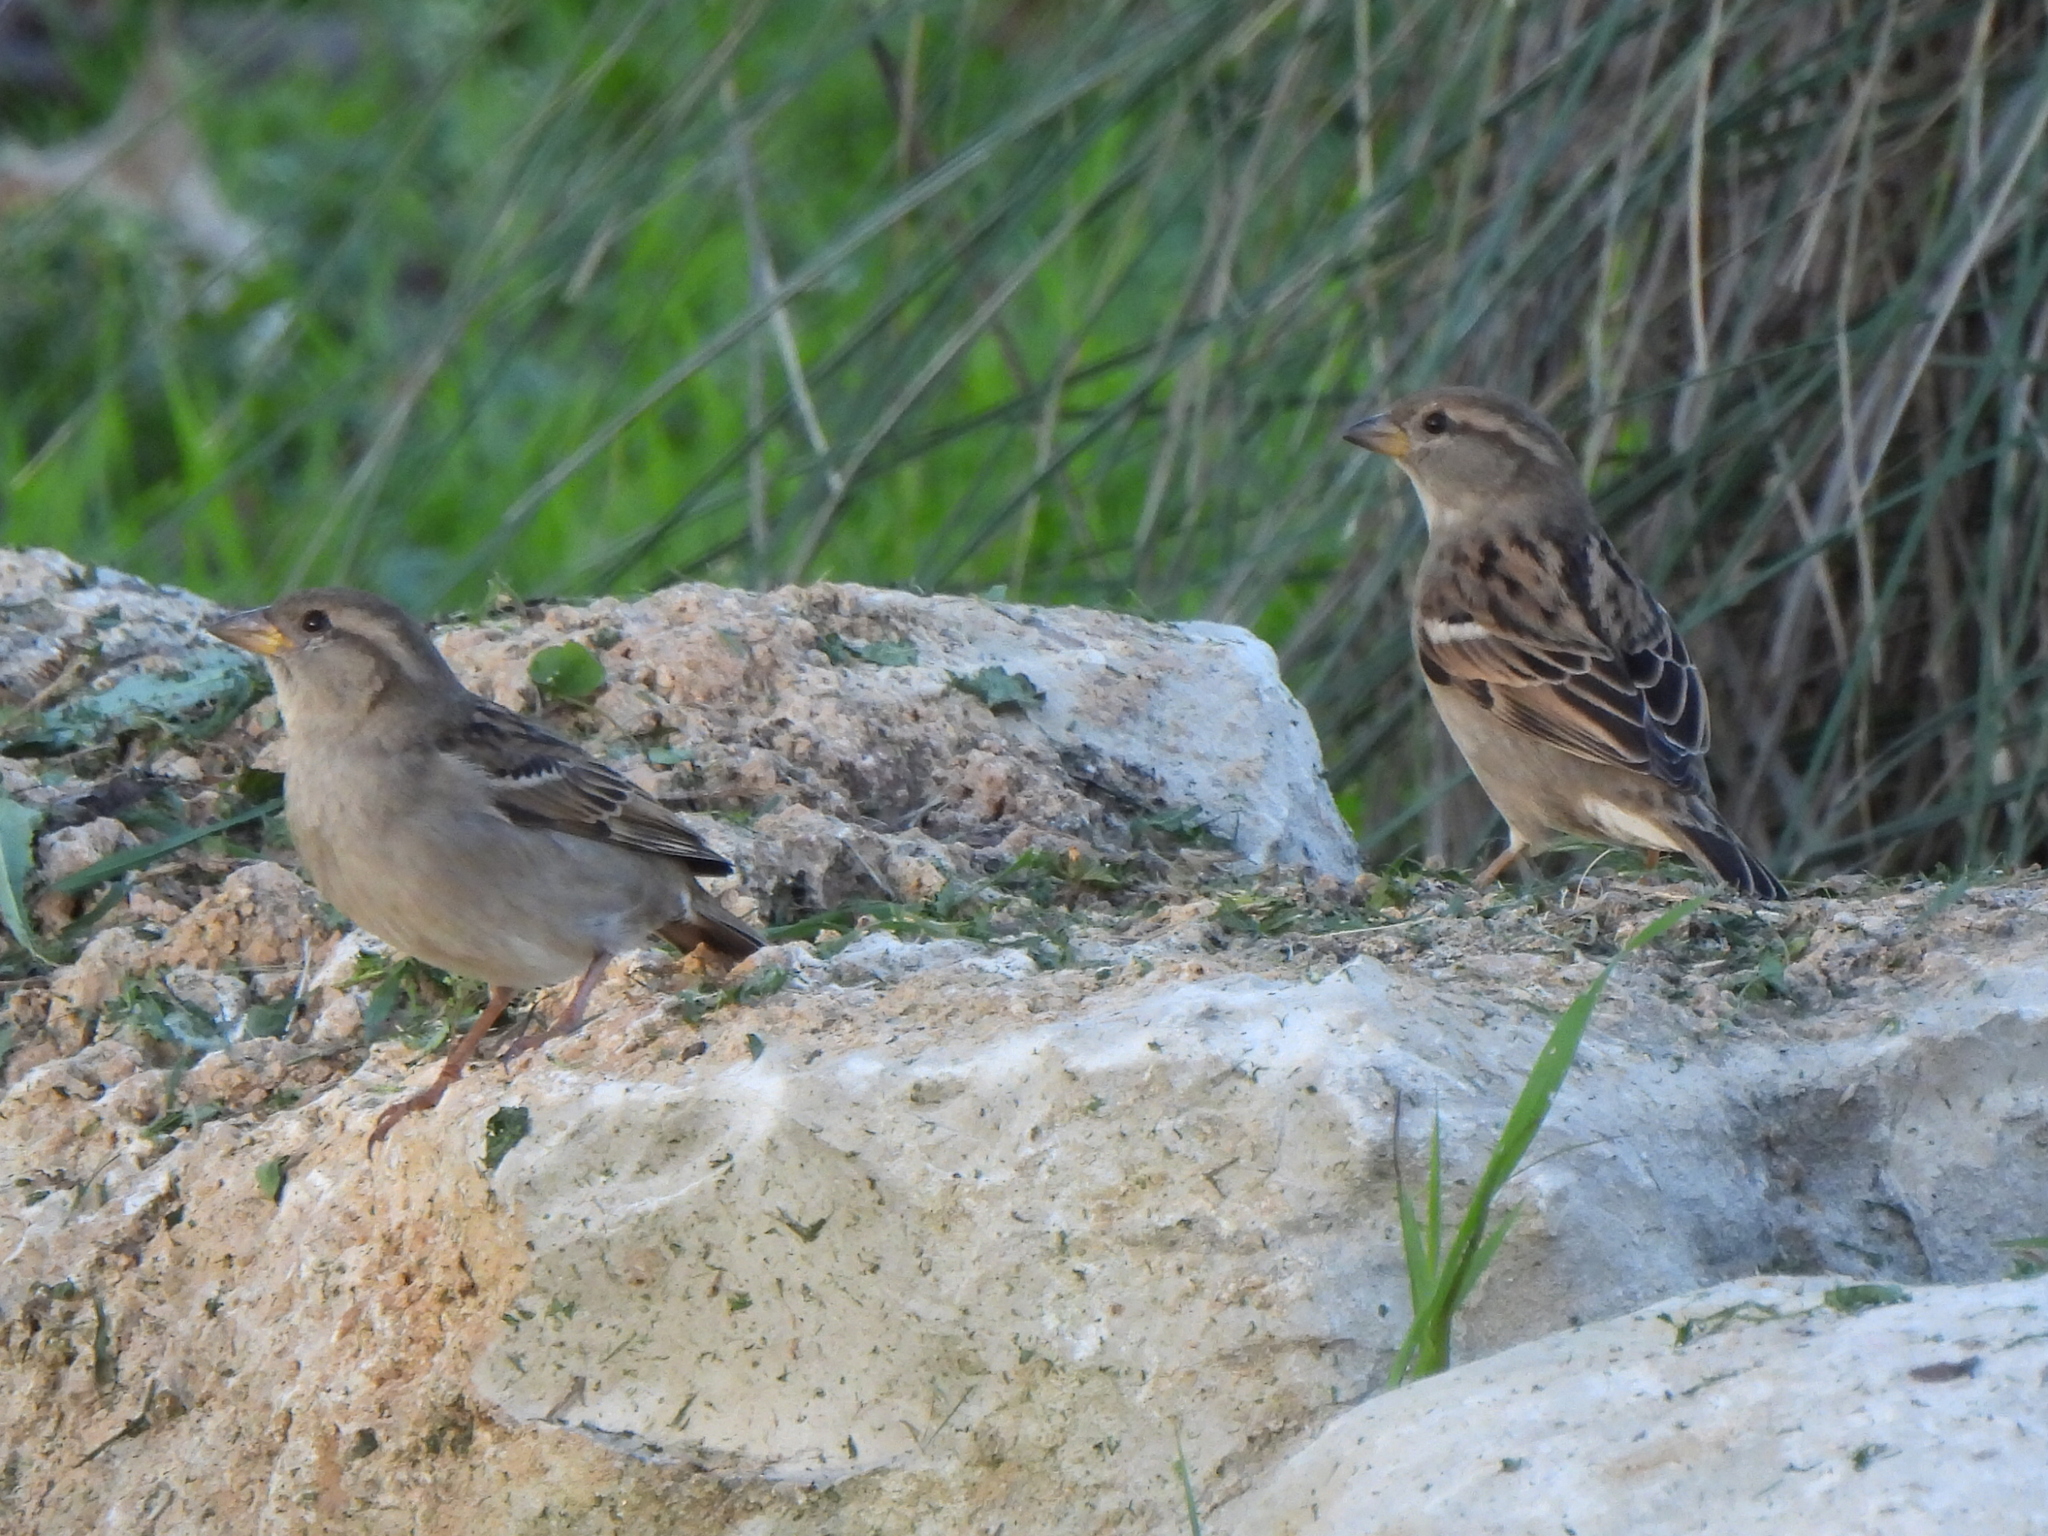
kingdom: Animalia
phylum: Chordata
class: Aves
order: Passeriformes
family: Passeridae
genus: Passer
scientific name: Passer domesticus
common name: House sparrow
